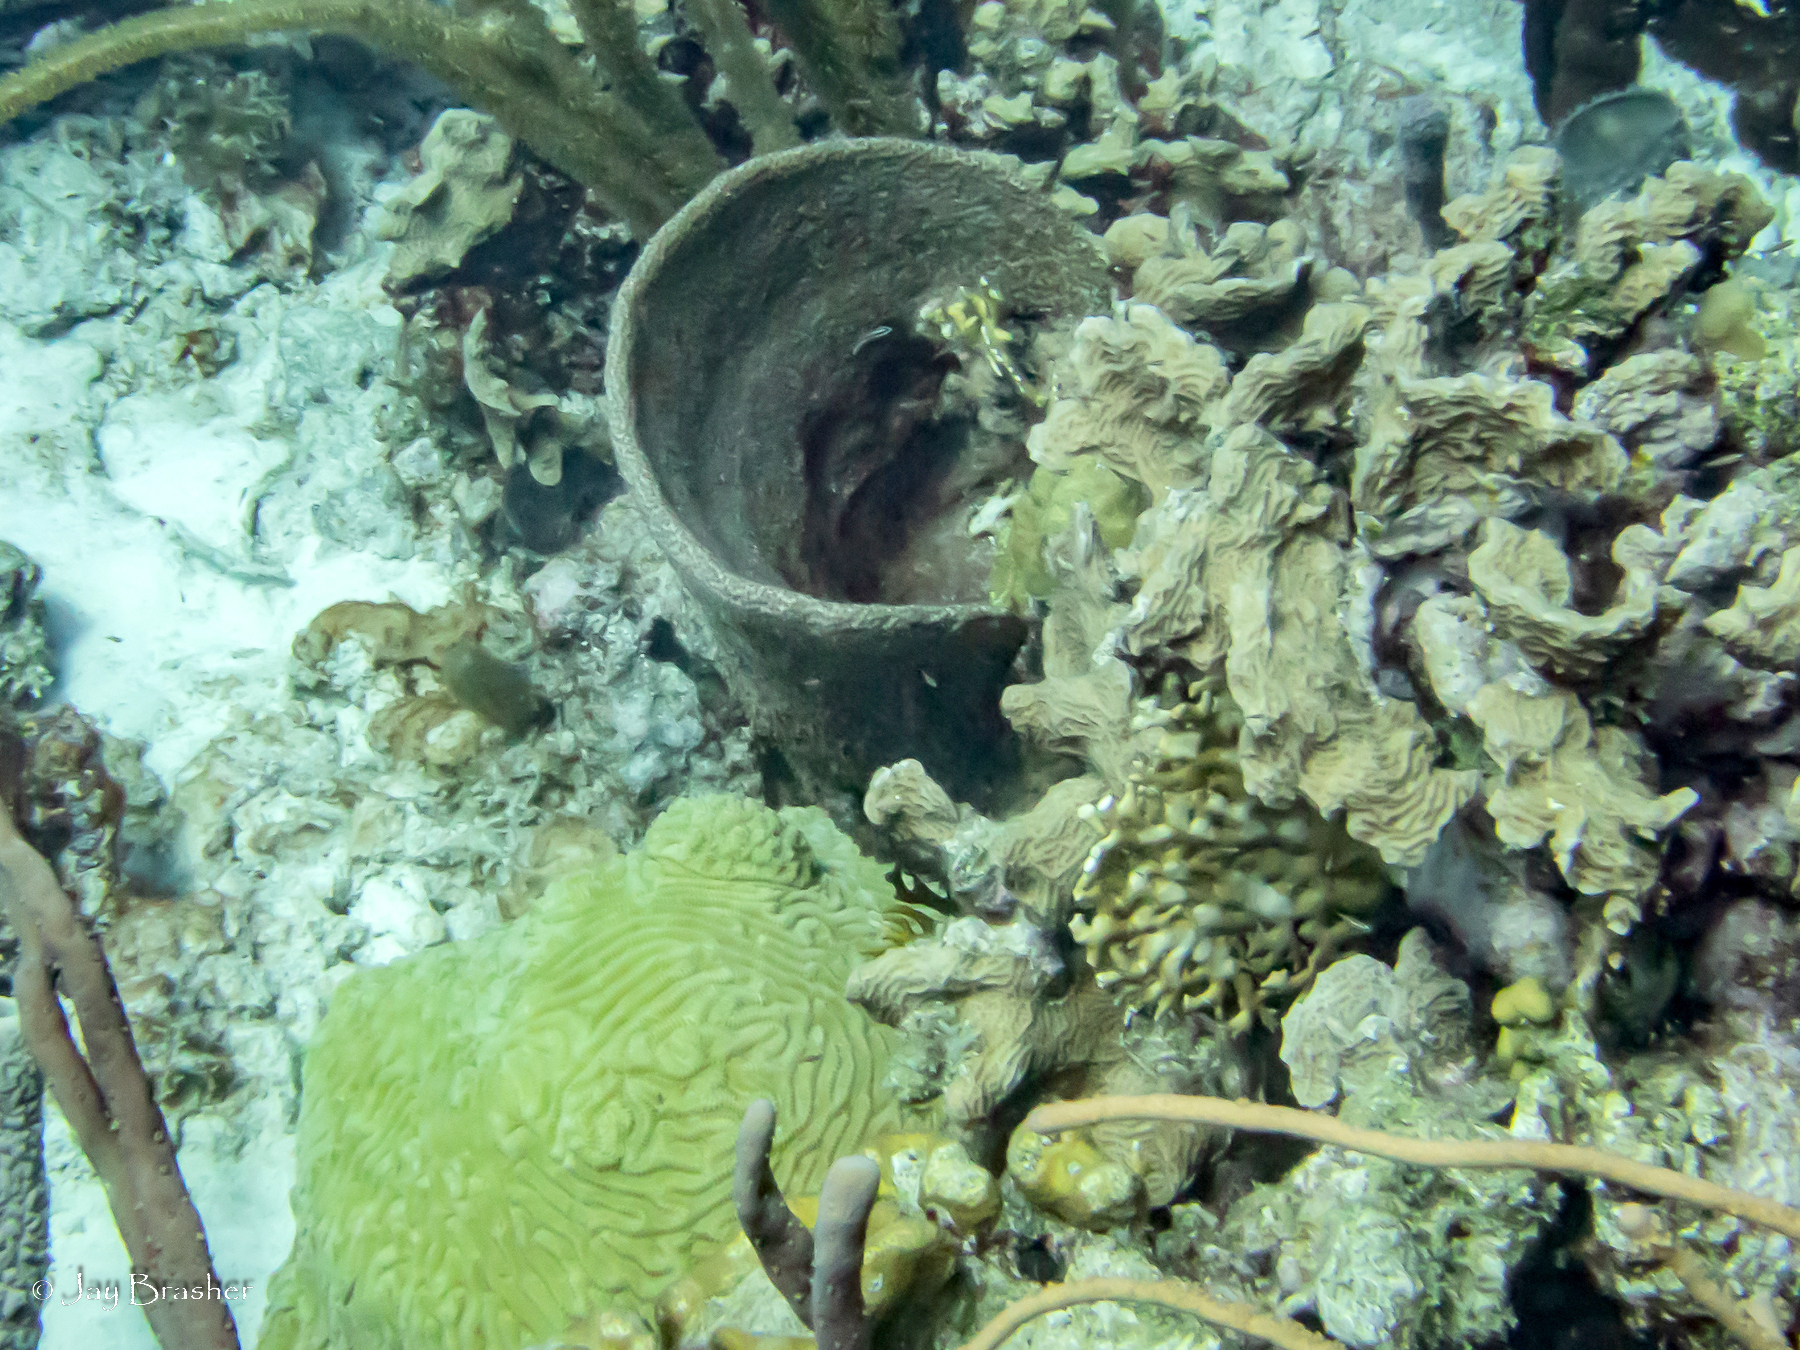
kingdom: Animalia
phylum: Porifera
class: Demospongiae
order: Verongiida
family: Aplysinidae
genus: Verongula
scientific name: Verongula gigantea
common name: Netted barrel sponge
